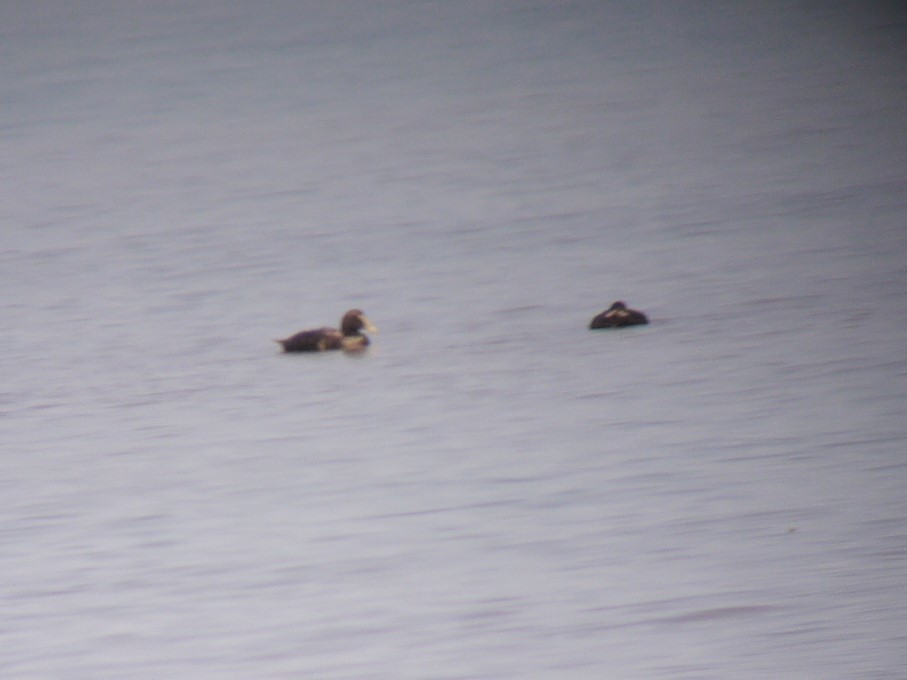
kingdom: Animalia
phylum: Chordata
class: Aves
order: Anseriformes
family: Anatidae
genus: Somateria
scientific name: Somateria mollissima
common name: Common eider
